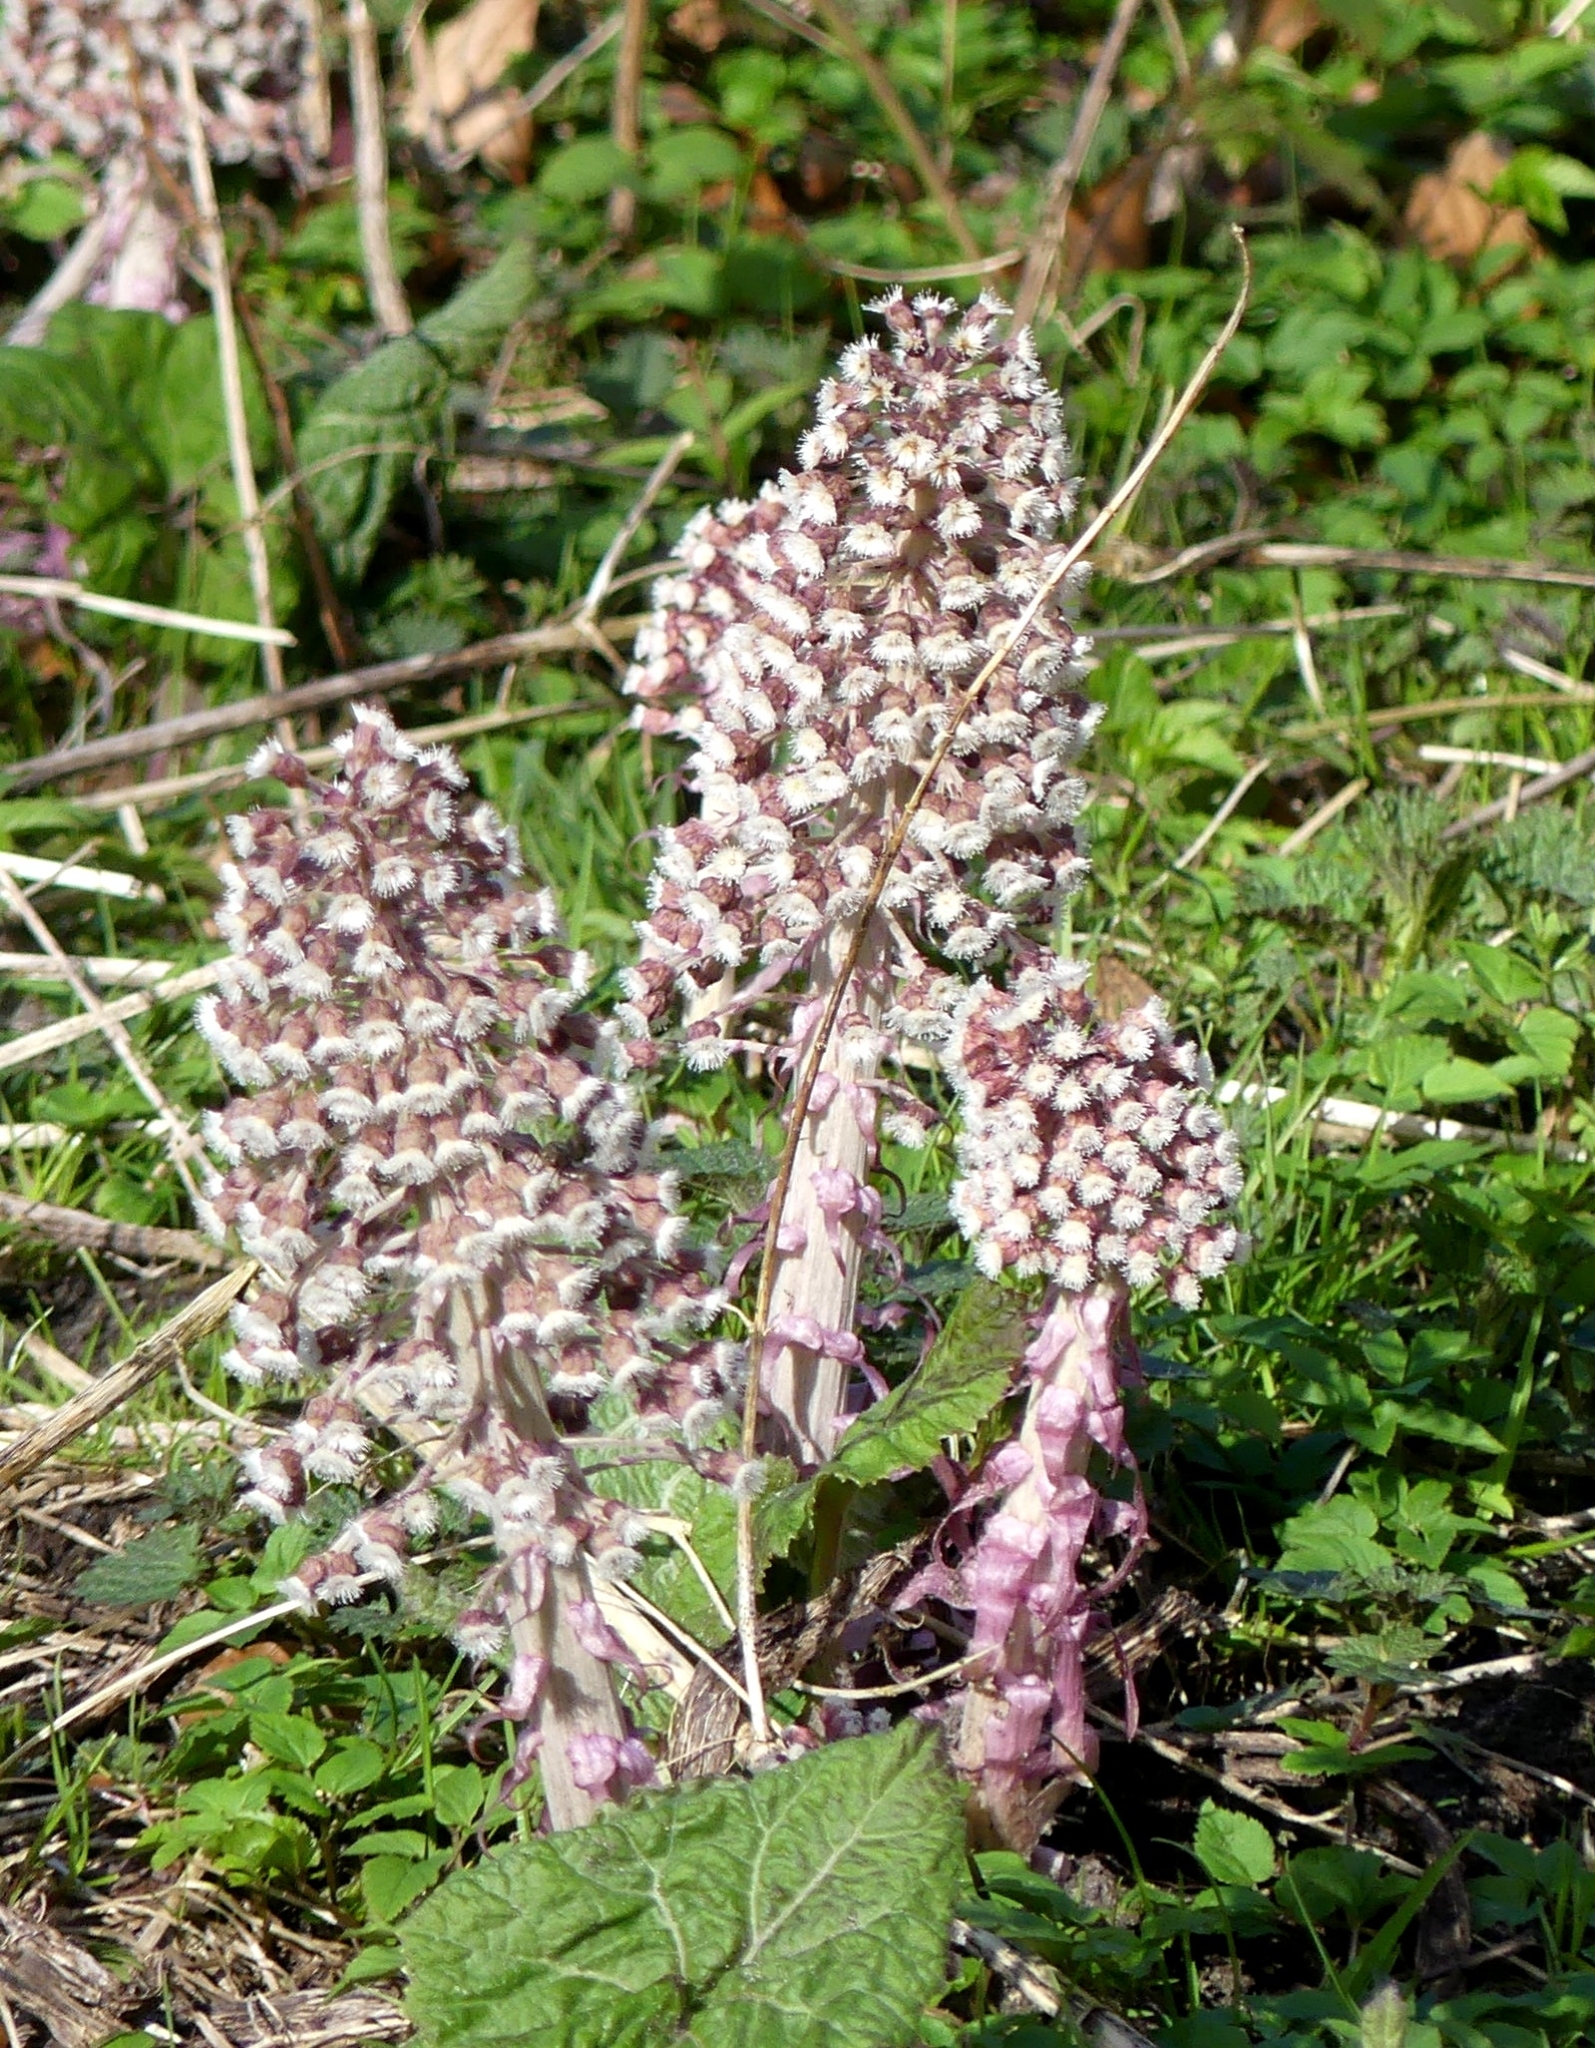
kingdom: Plantae
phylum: Tracheophyta
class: Magnoliopsida
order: Asterales
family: Asteraceae
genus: Petasites
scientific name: Petasites hybridus
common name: Butterbur
